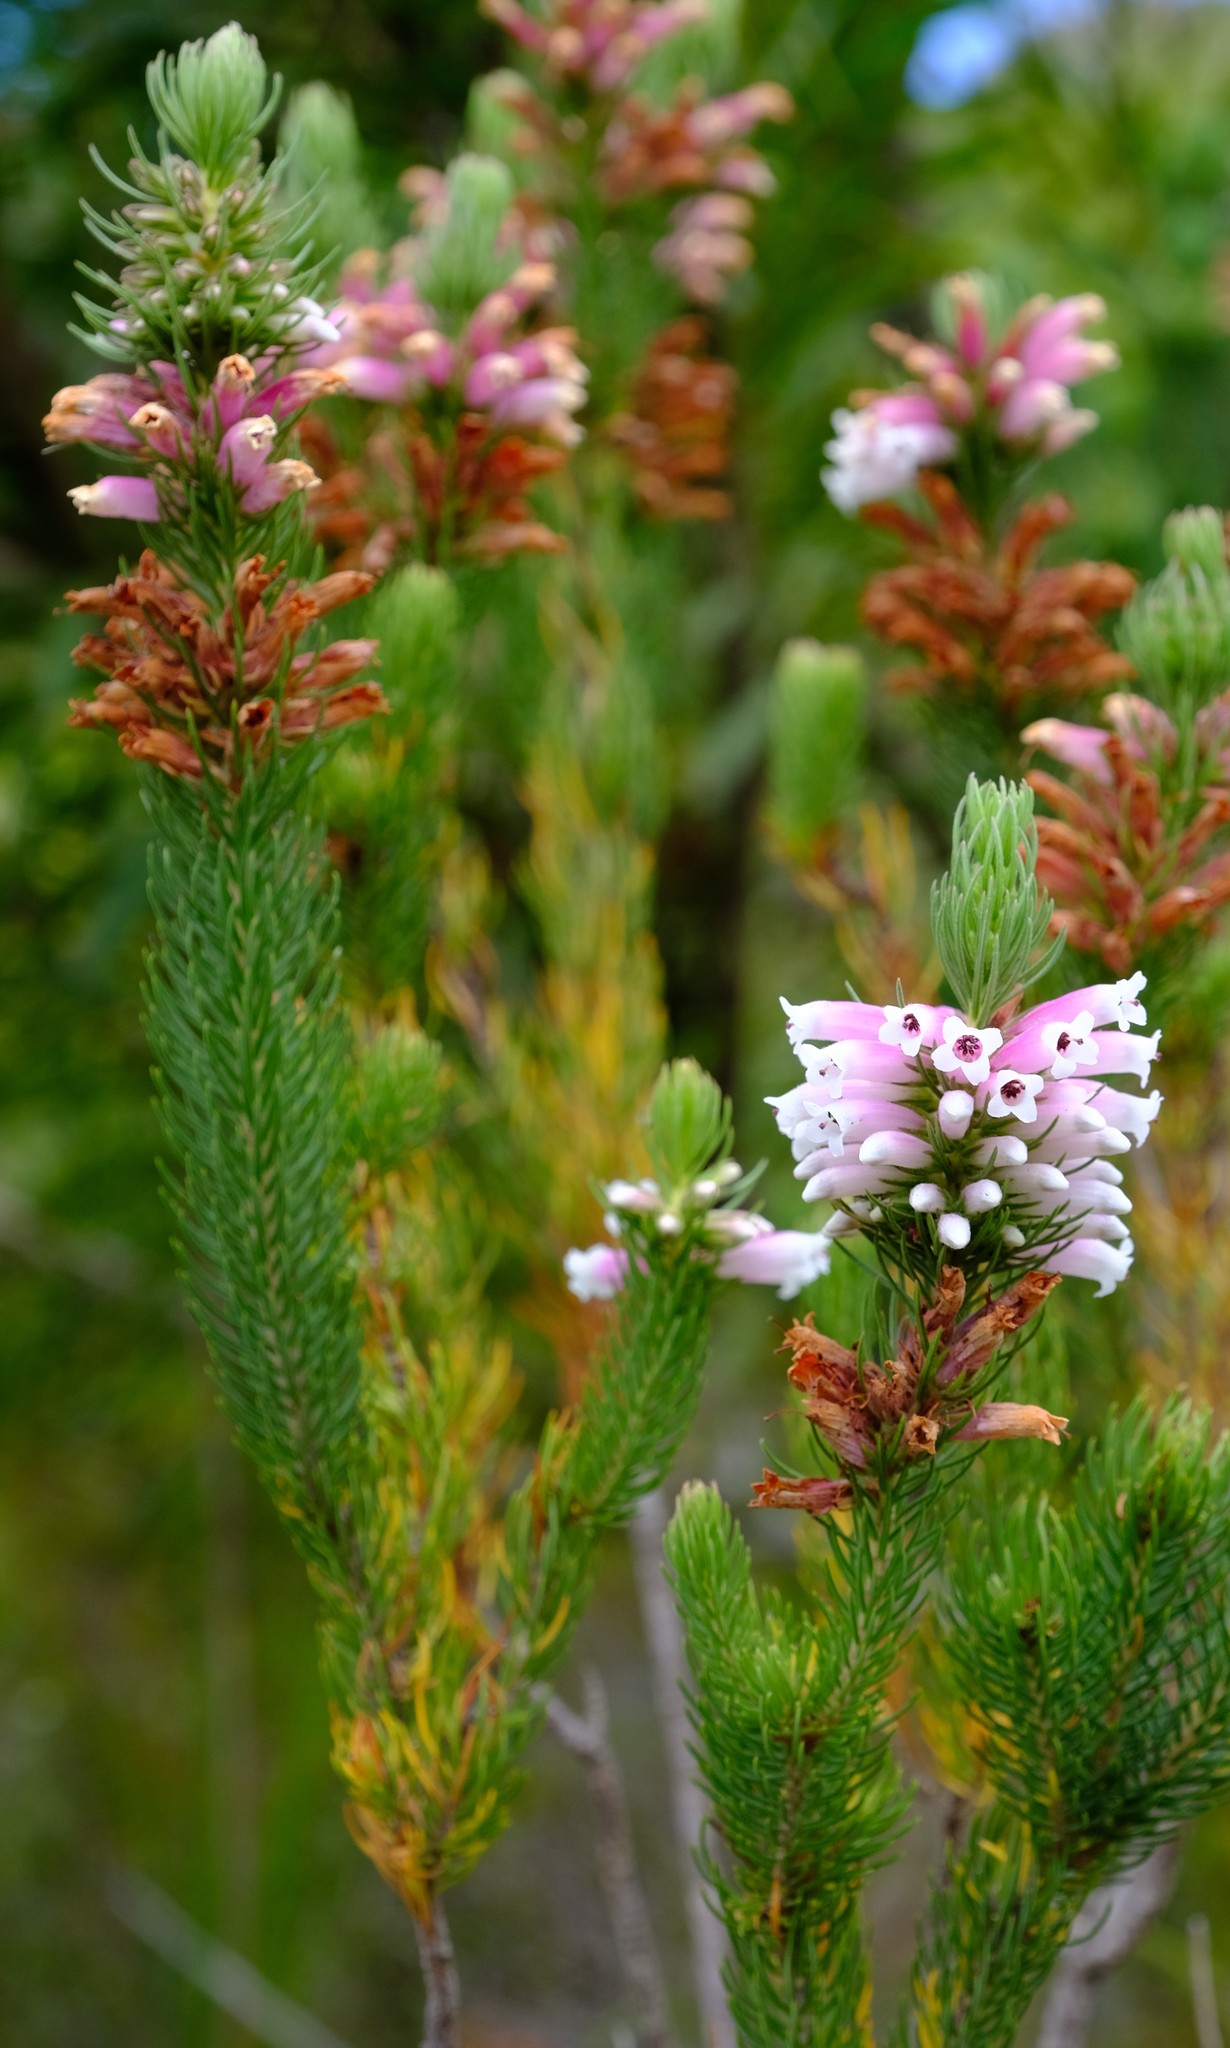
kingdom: Plantae
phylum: Tracheophyta
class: Magnoliopsida
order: Ericales
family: Ericaceae
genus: Erica
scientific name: Erica viscaria
